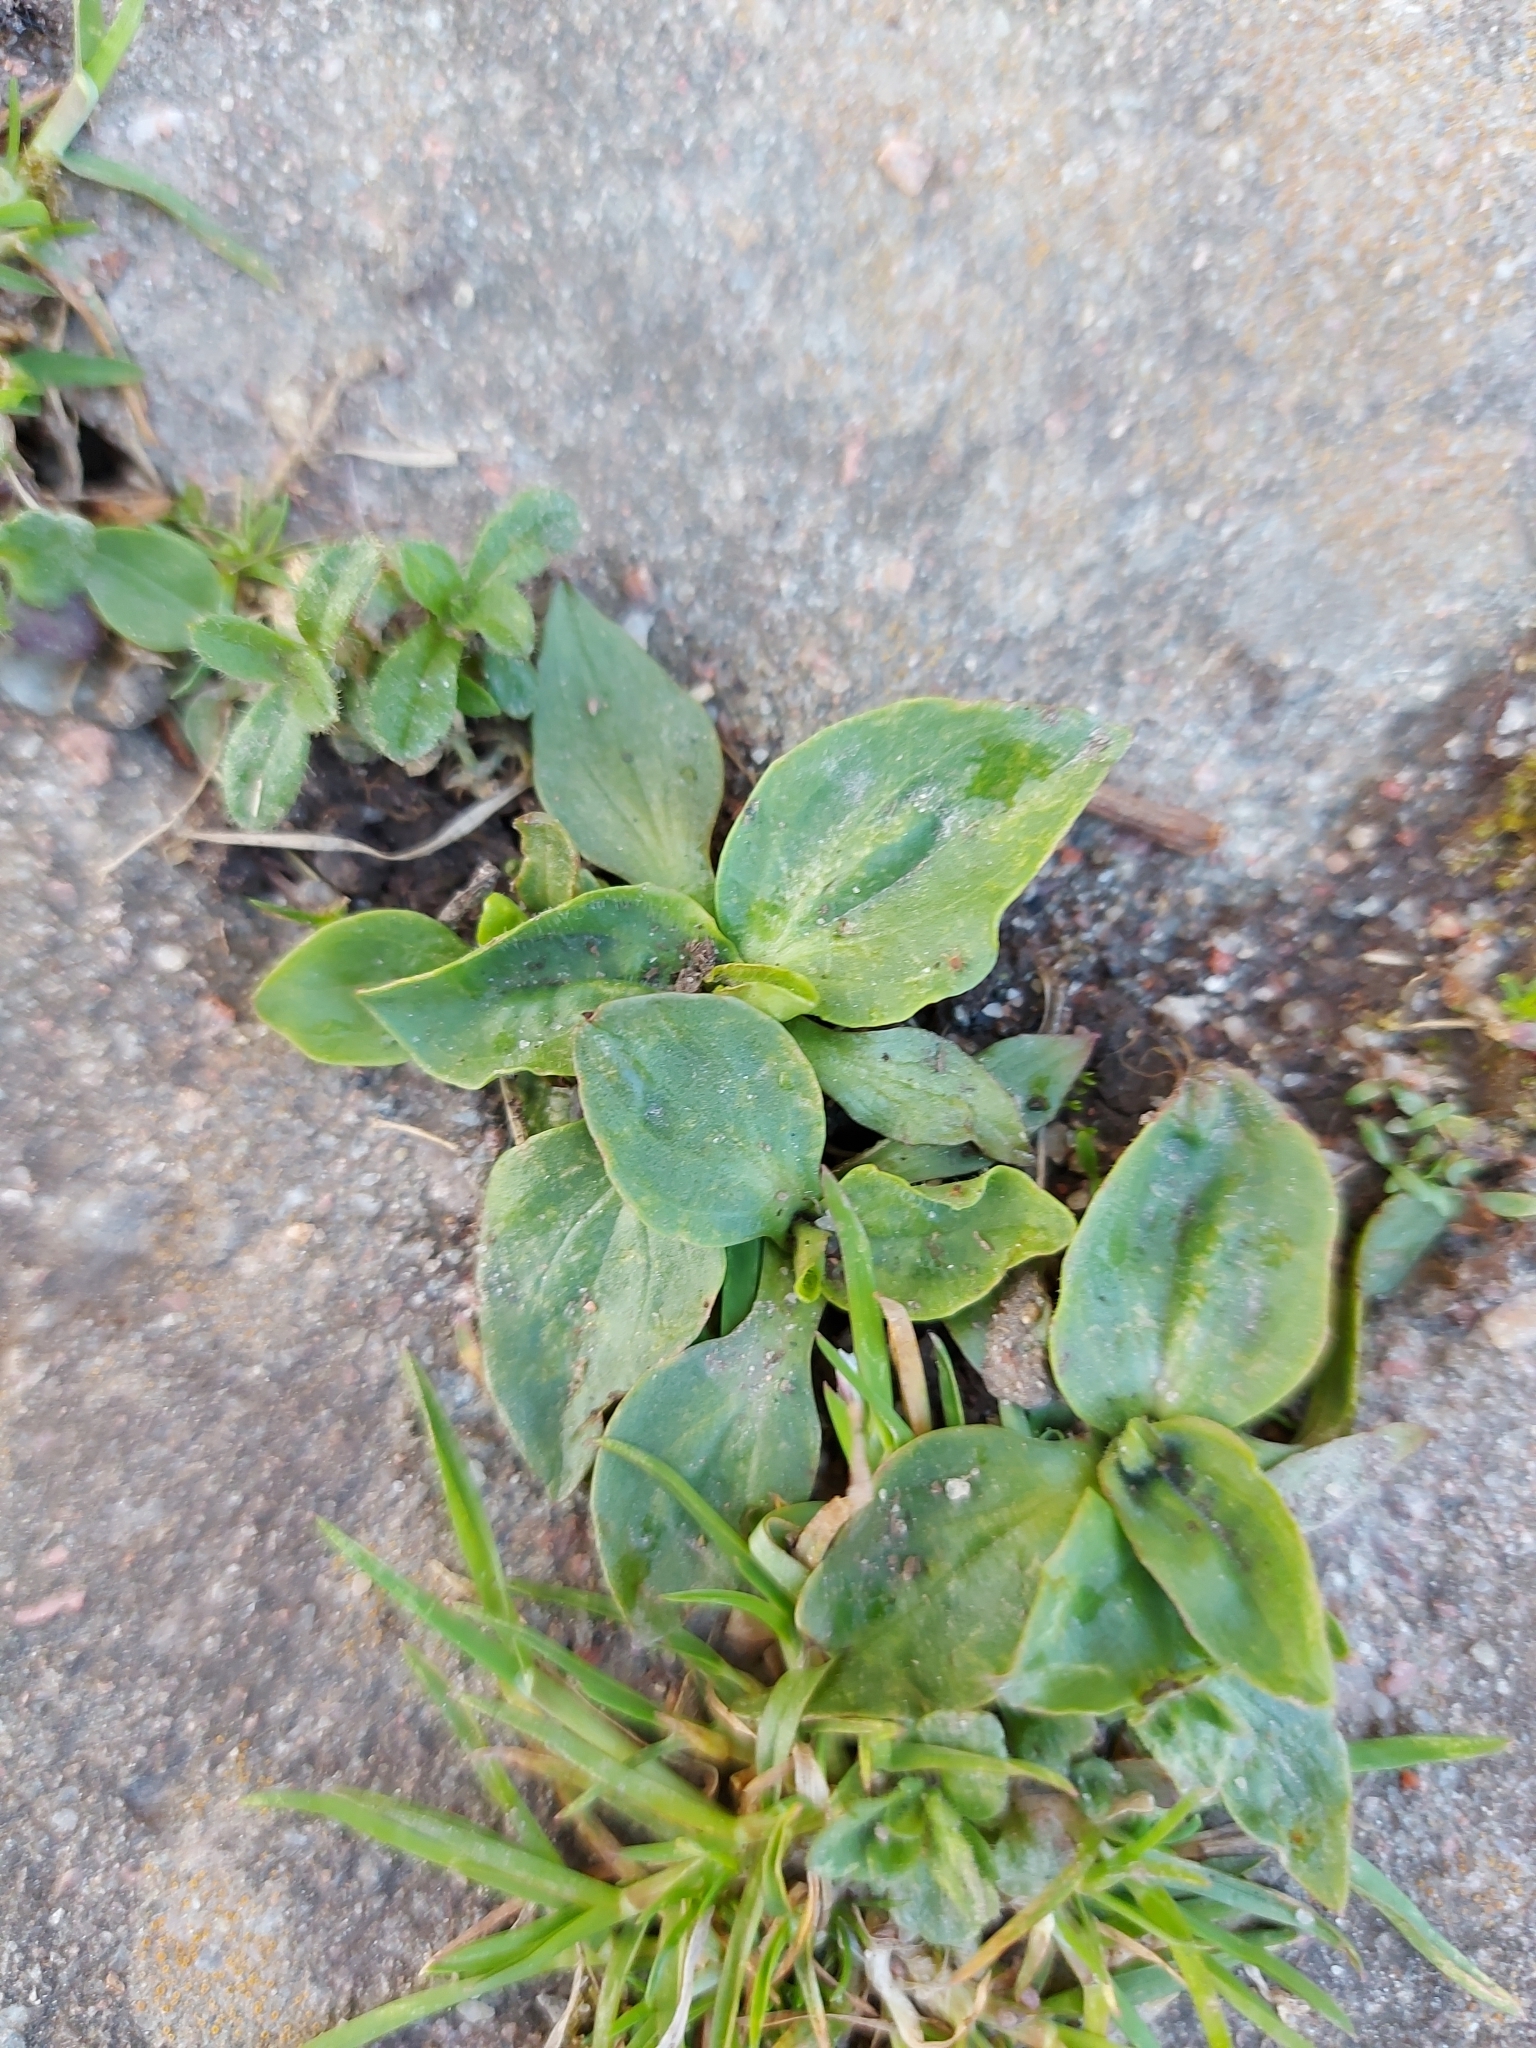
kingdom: Plantae
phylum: Tracheophyta
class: Magnoliopsida
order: Lamiales
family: Plantaginaceae
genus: Plantago
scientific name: Plantago major
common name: Common plantain
